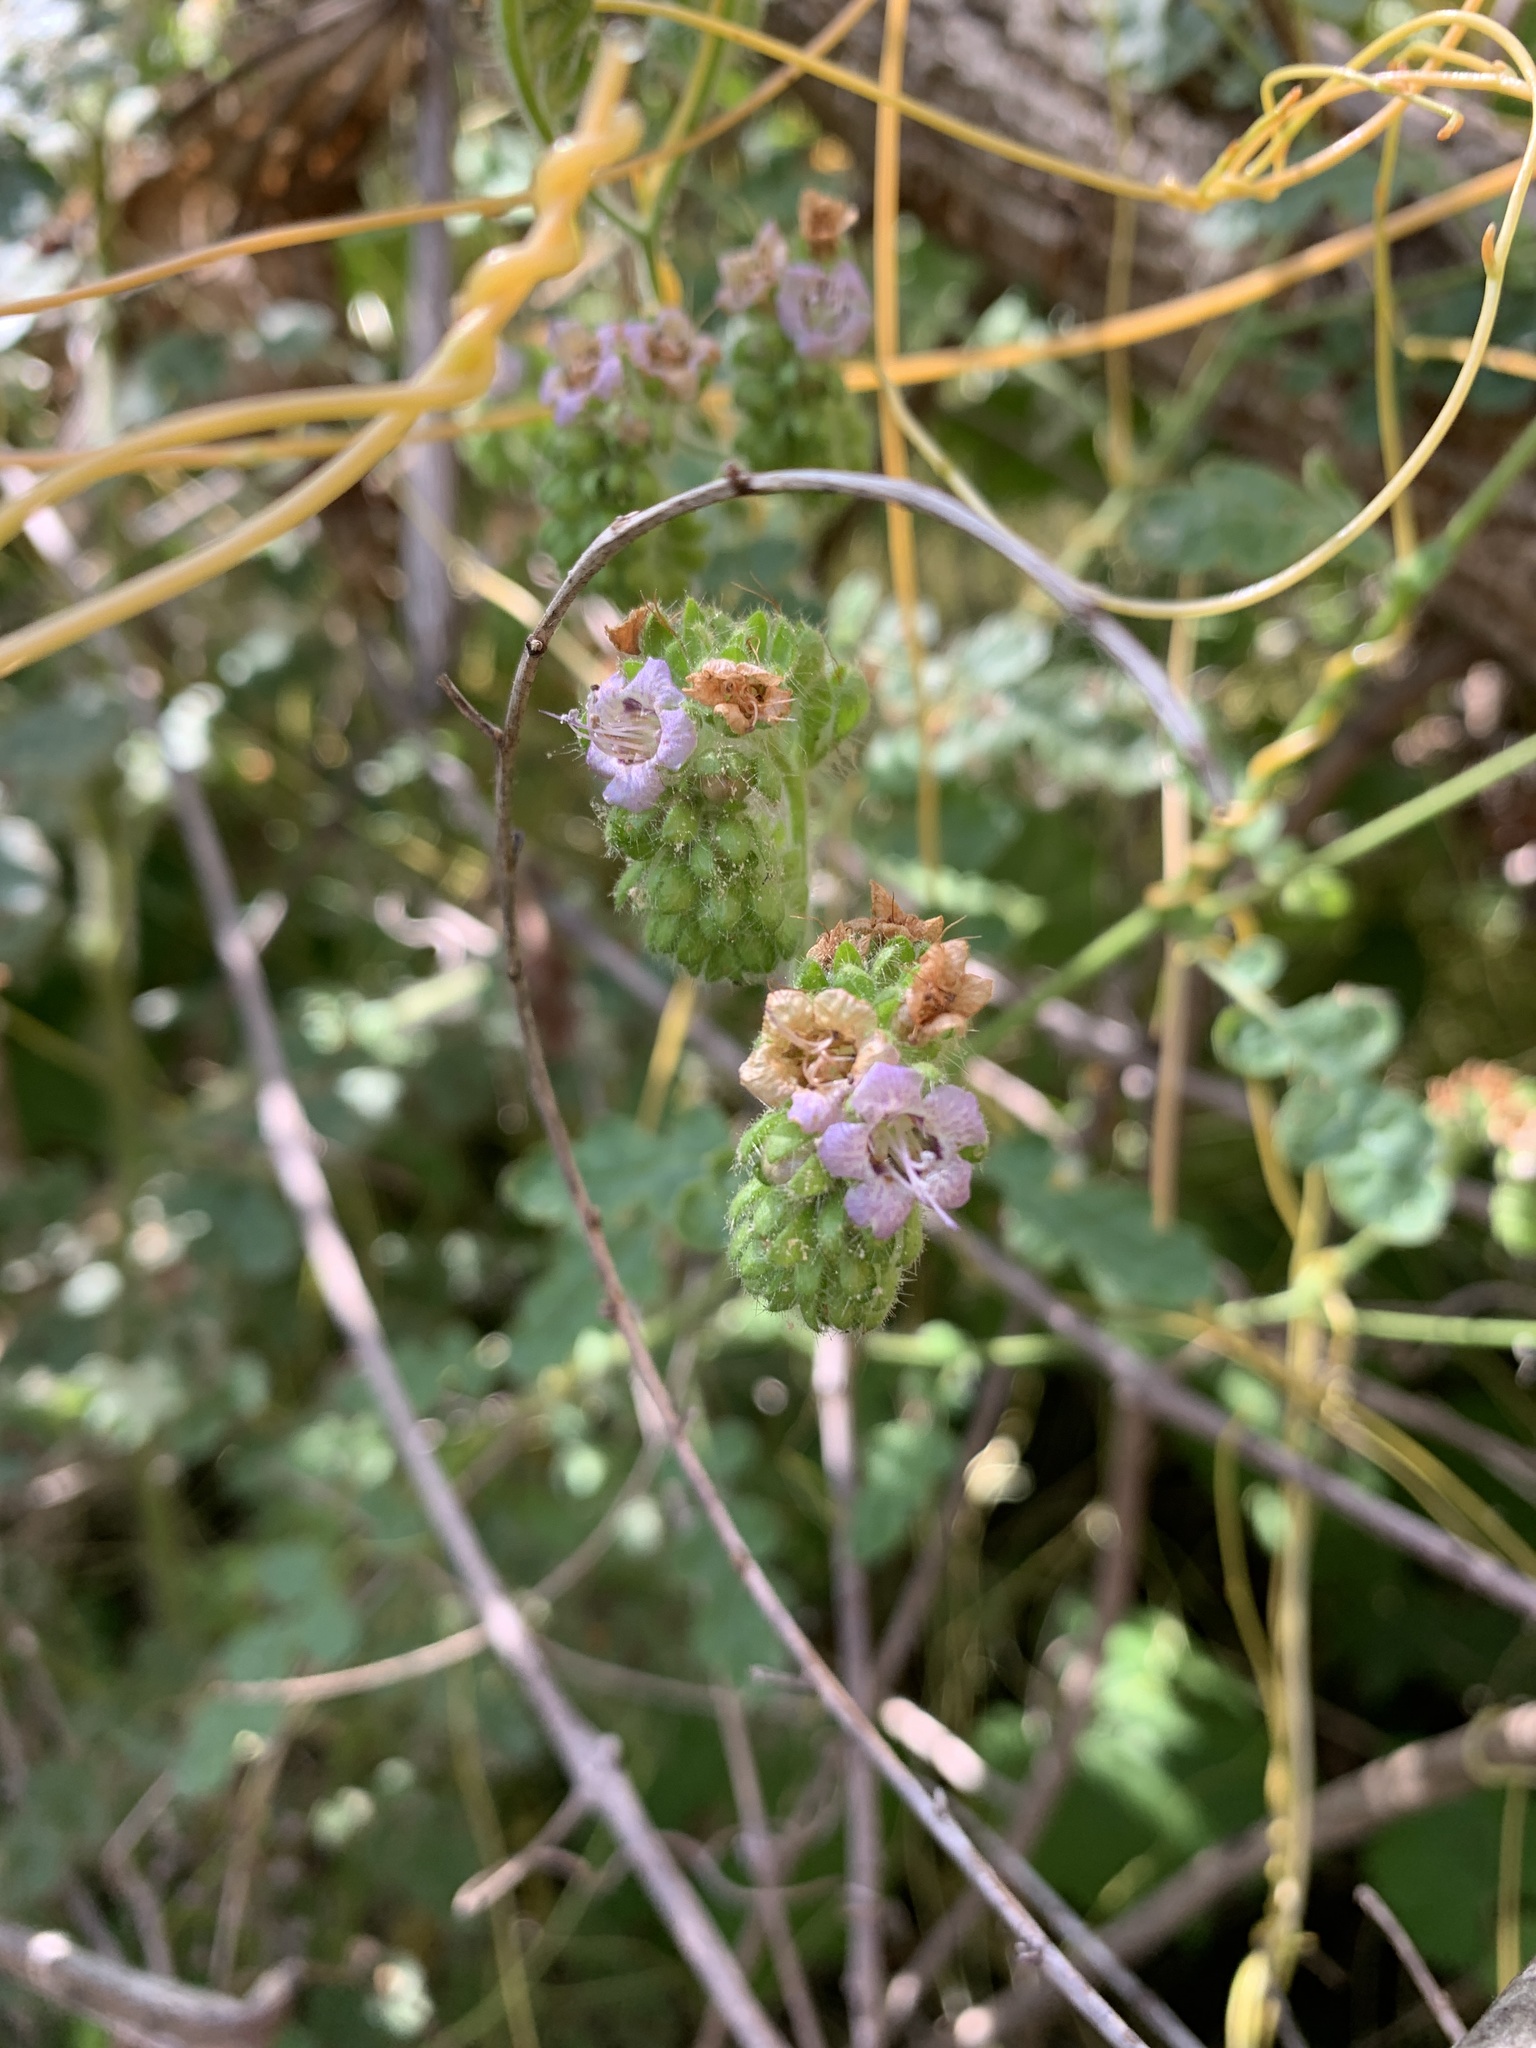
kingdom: Plantae
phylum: Tracheophyta
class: Magnoliopsida
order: Boraginales
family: Hydrophyllaceae
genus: Phacelia
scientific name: Phacelia ramosissima
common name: Branching phacelia
